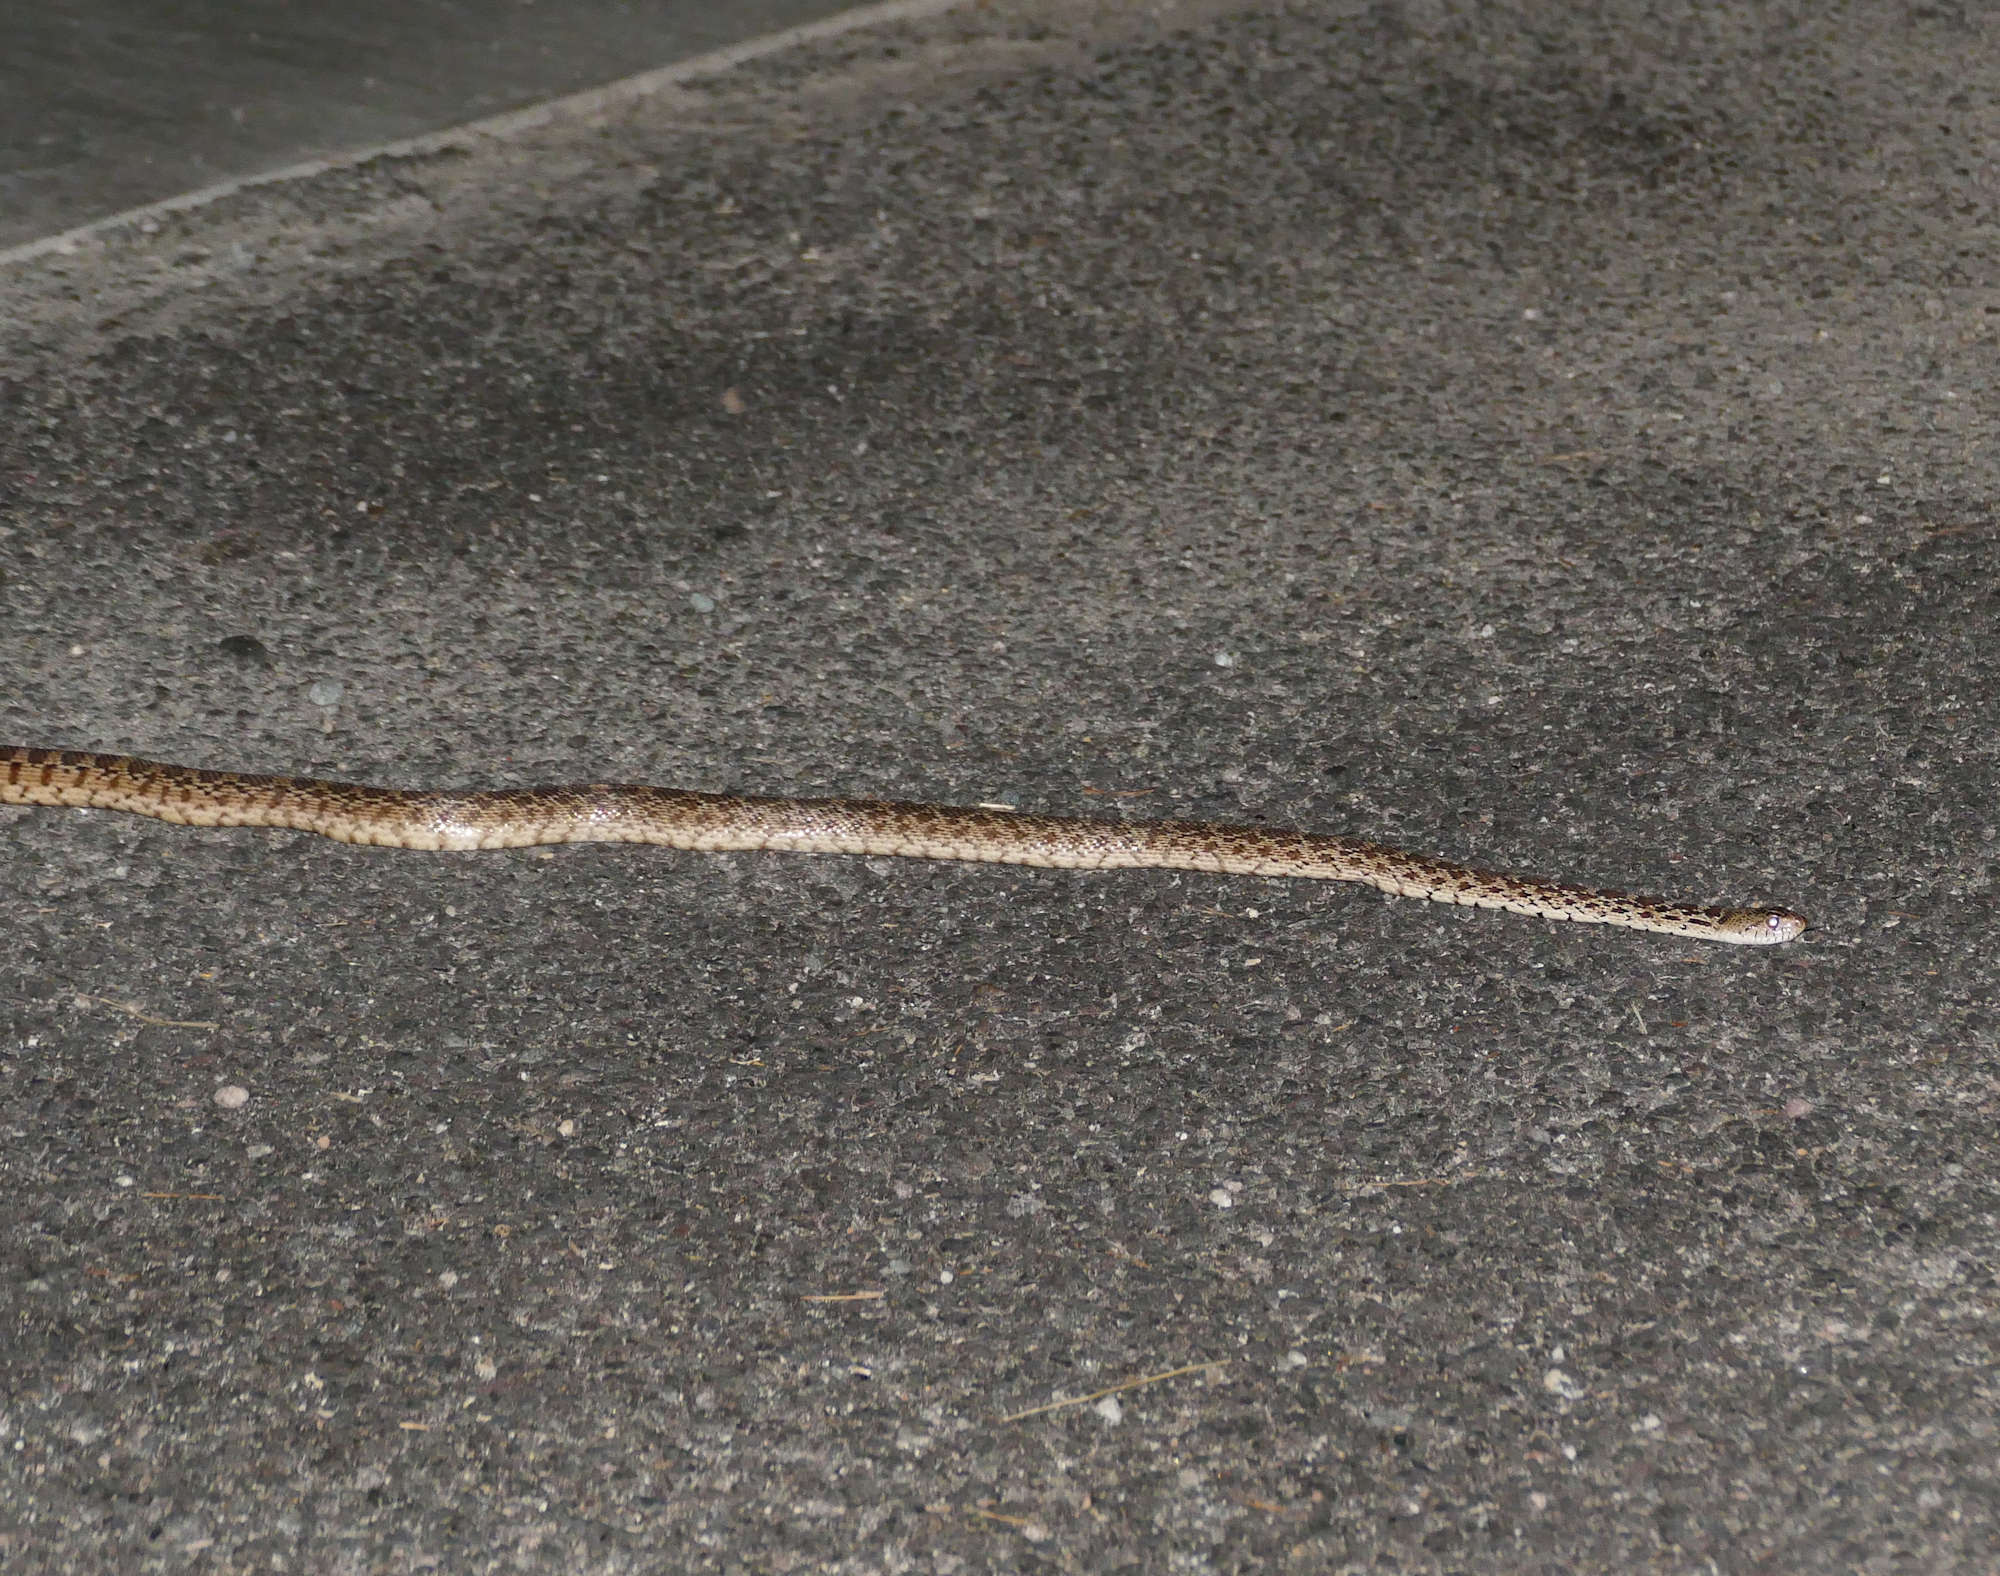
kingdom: Animalia
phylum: Chordata
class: Squamata
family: Colubridae
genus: Pituophis
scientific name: Pituophis catenifer
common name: Gopher snake
